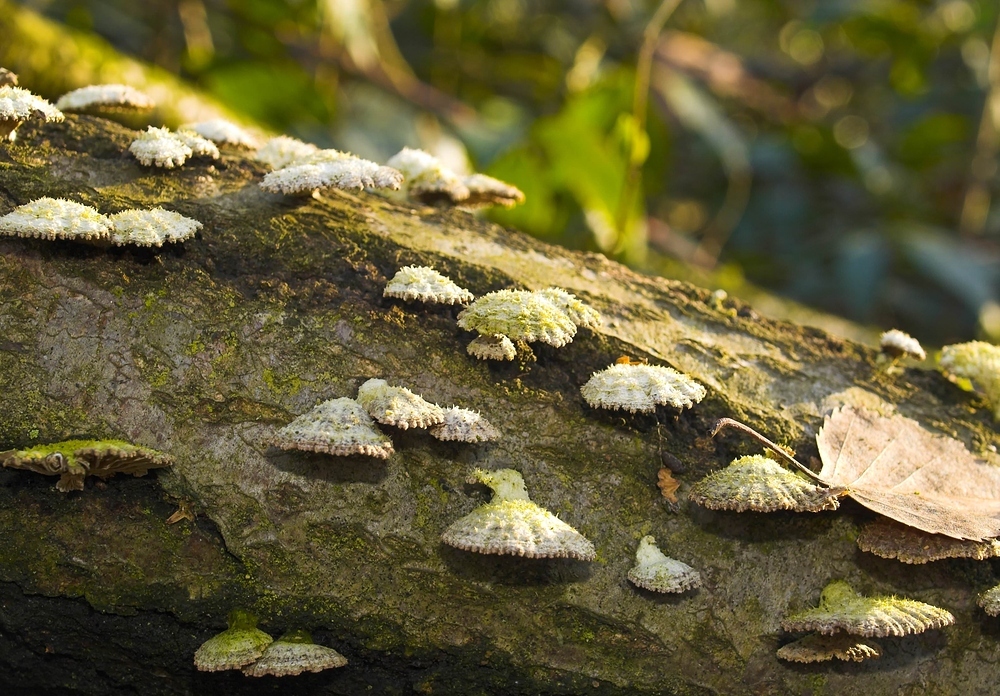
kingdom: Fungi
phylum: Basidiomycota
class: Agaricomycetes
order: Agaricales
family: Schizophyllaceae
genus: Schizophyllum
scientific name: Schizophyllum commune
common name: Common porecrust
